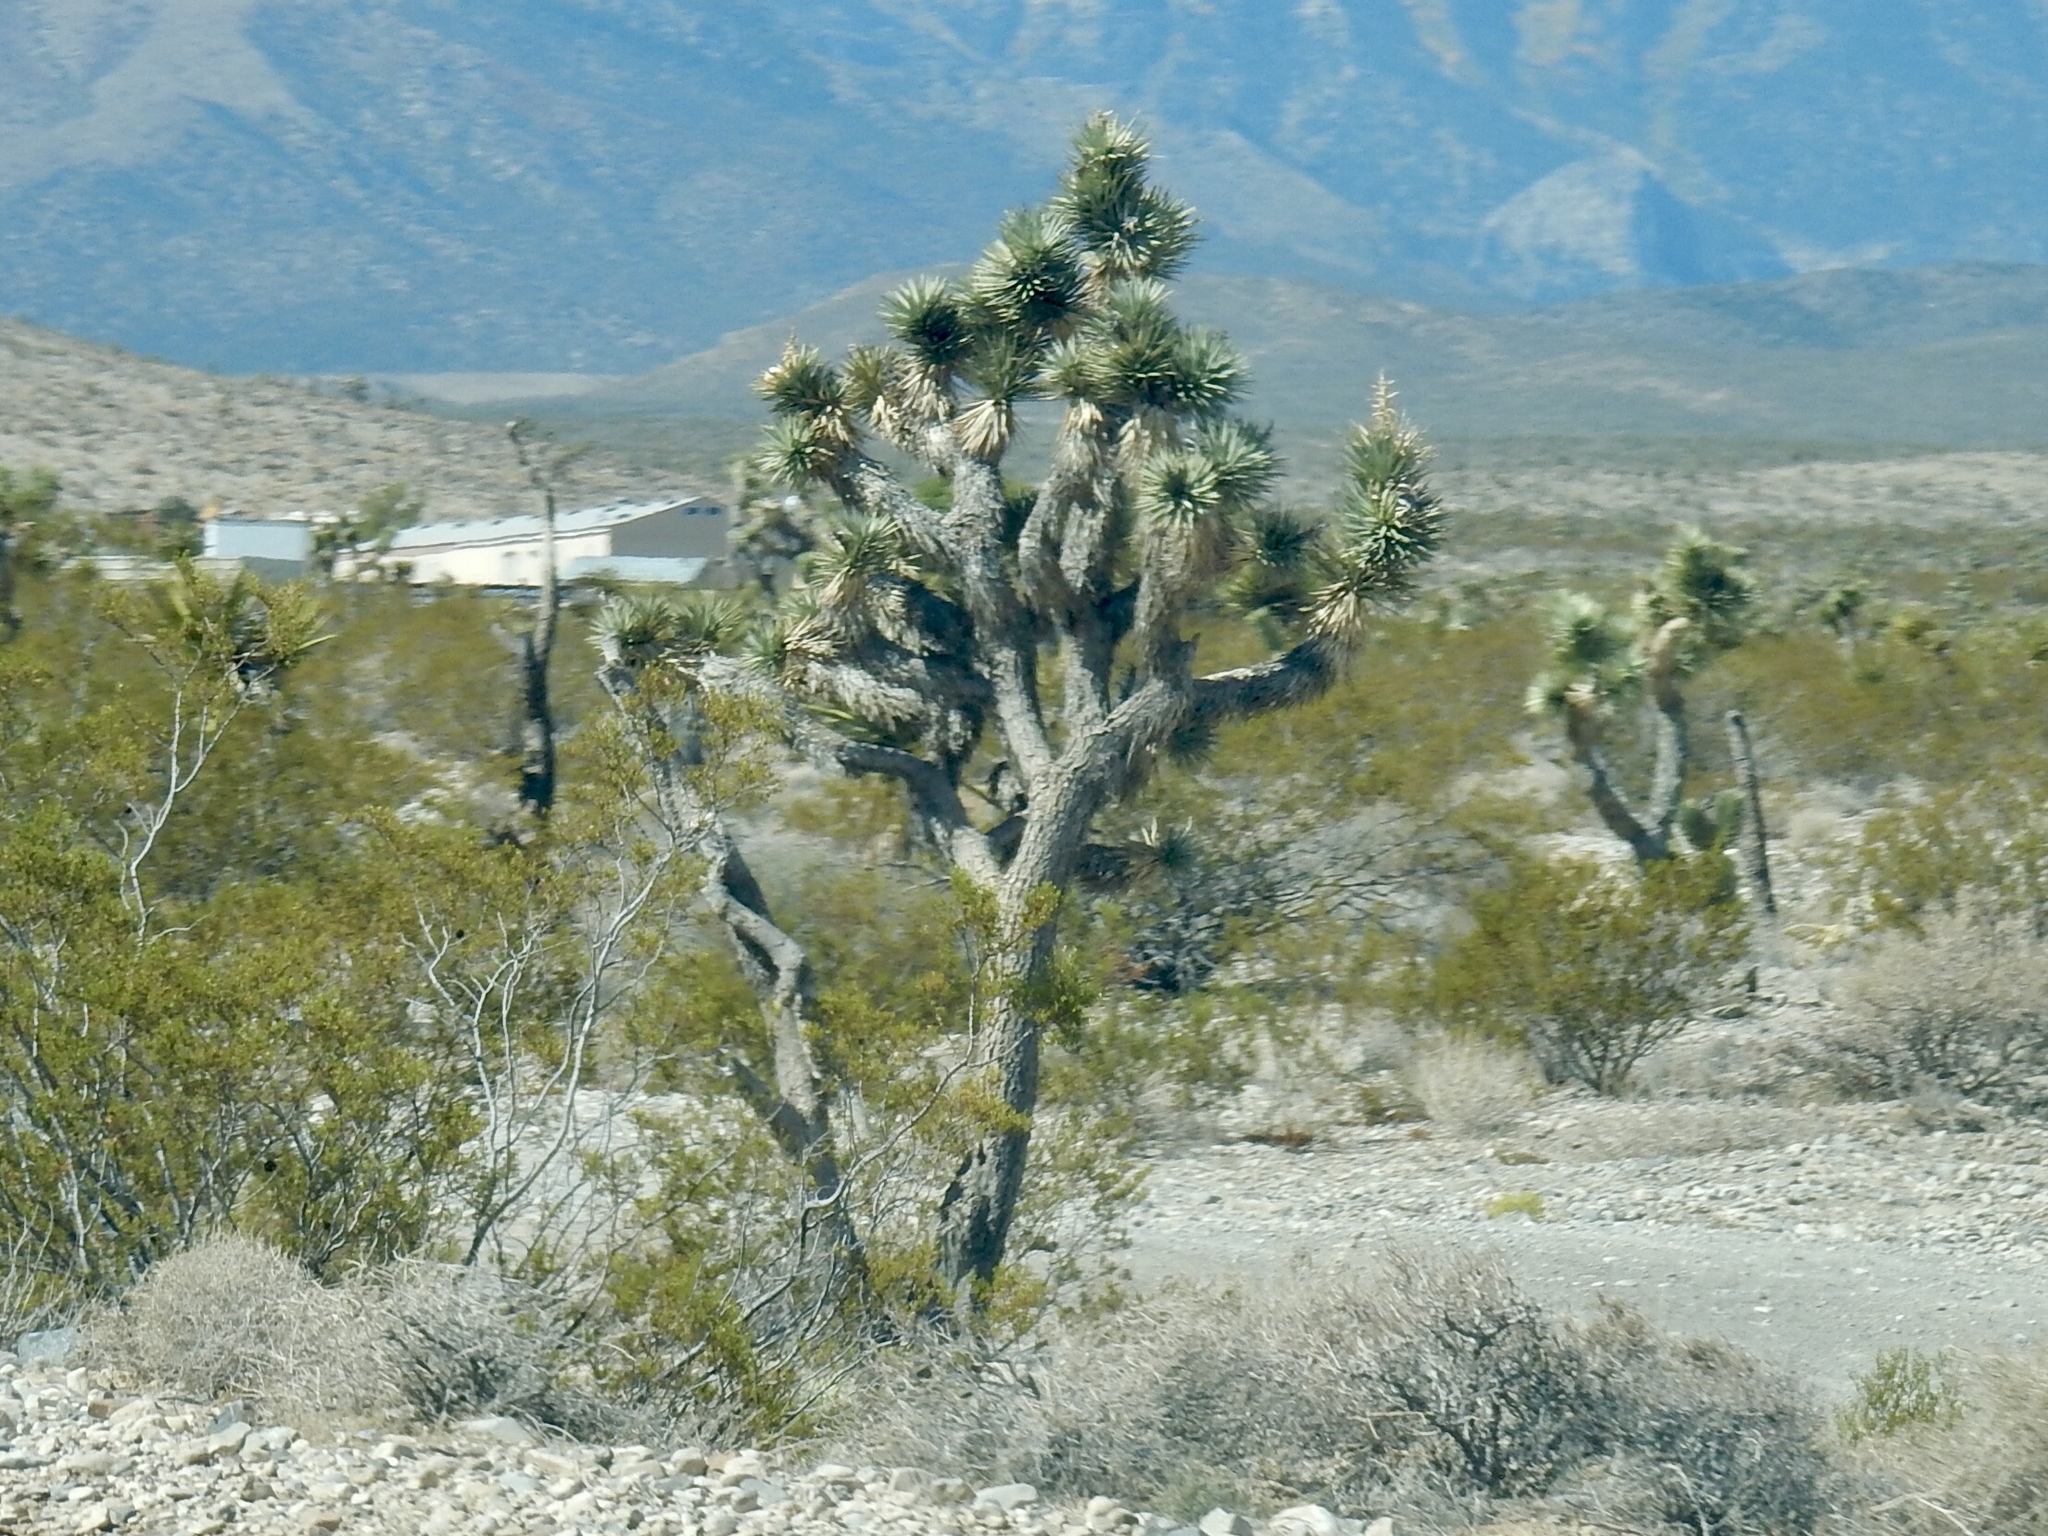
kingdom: Plantae
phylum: Tracheophyta
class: Liliopsida
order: Asparagales
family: Asparagaceae
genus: Yucca
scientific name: Yucca brevifolia
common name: Joshua tree
